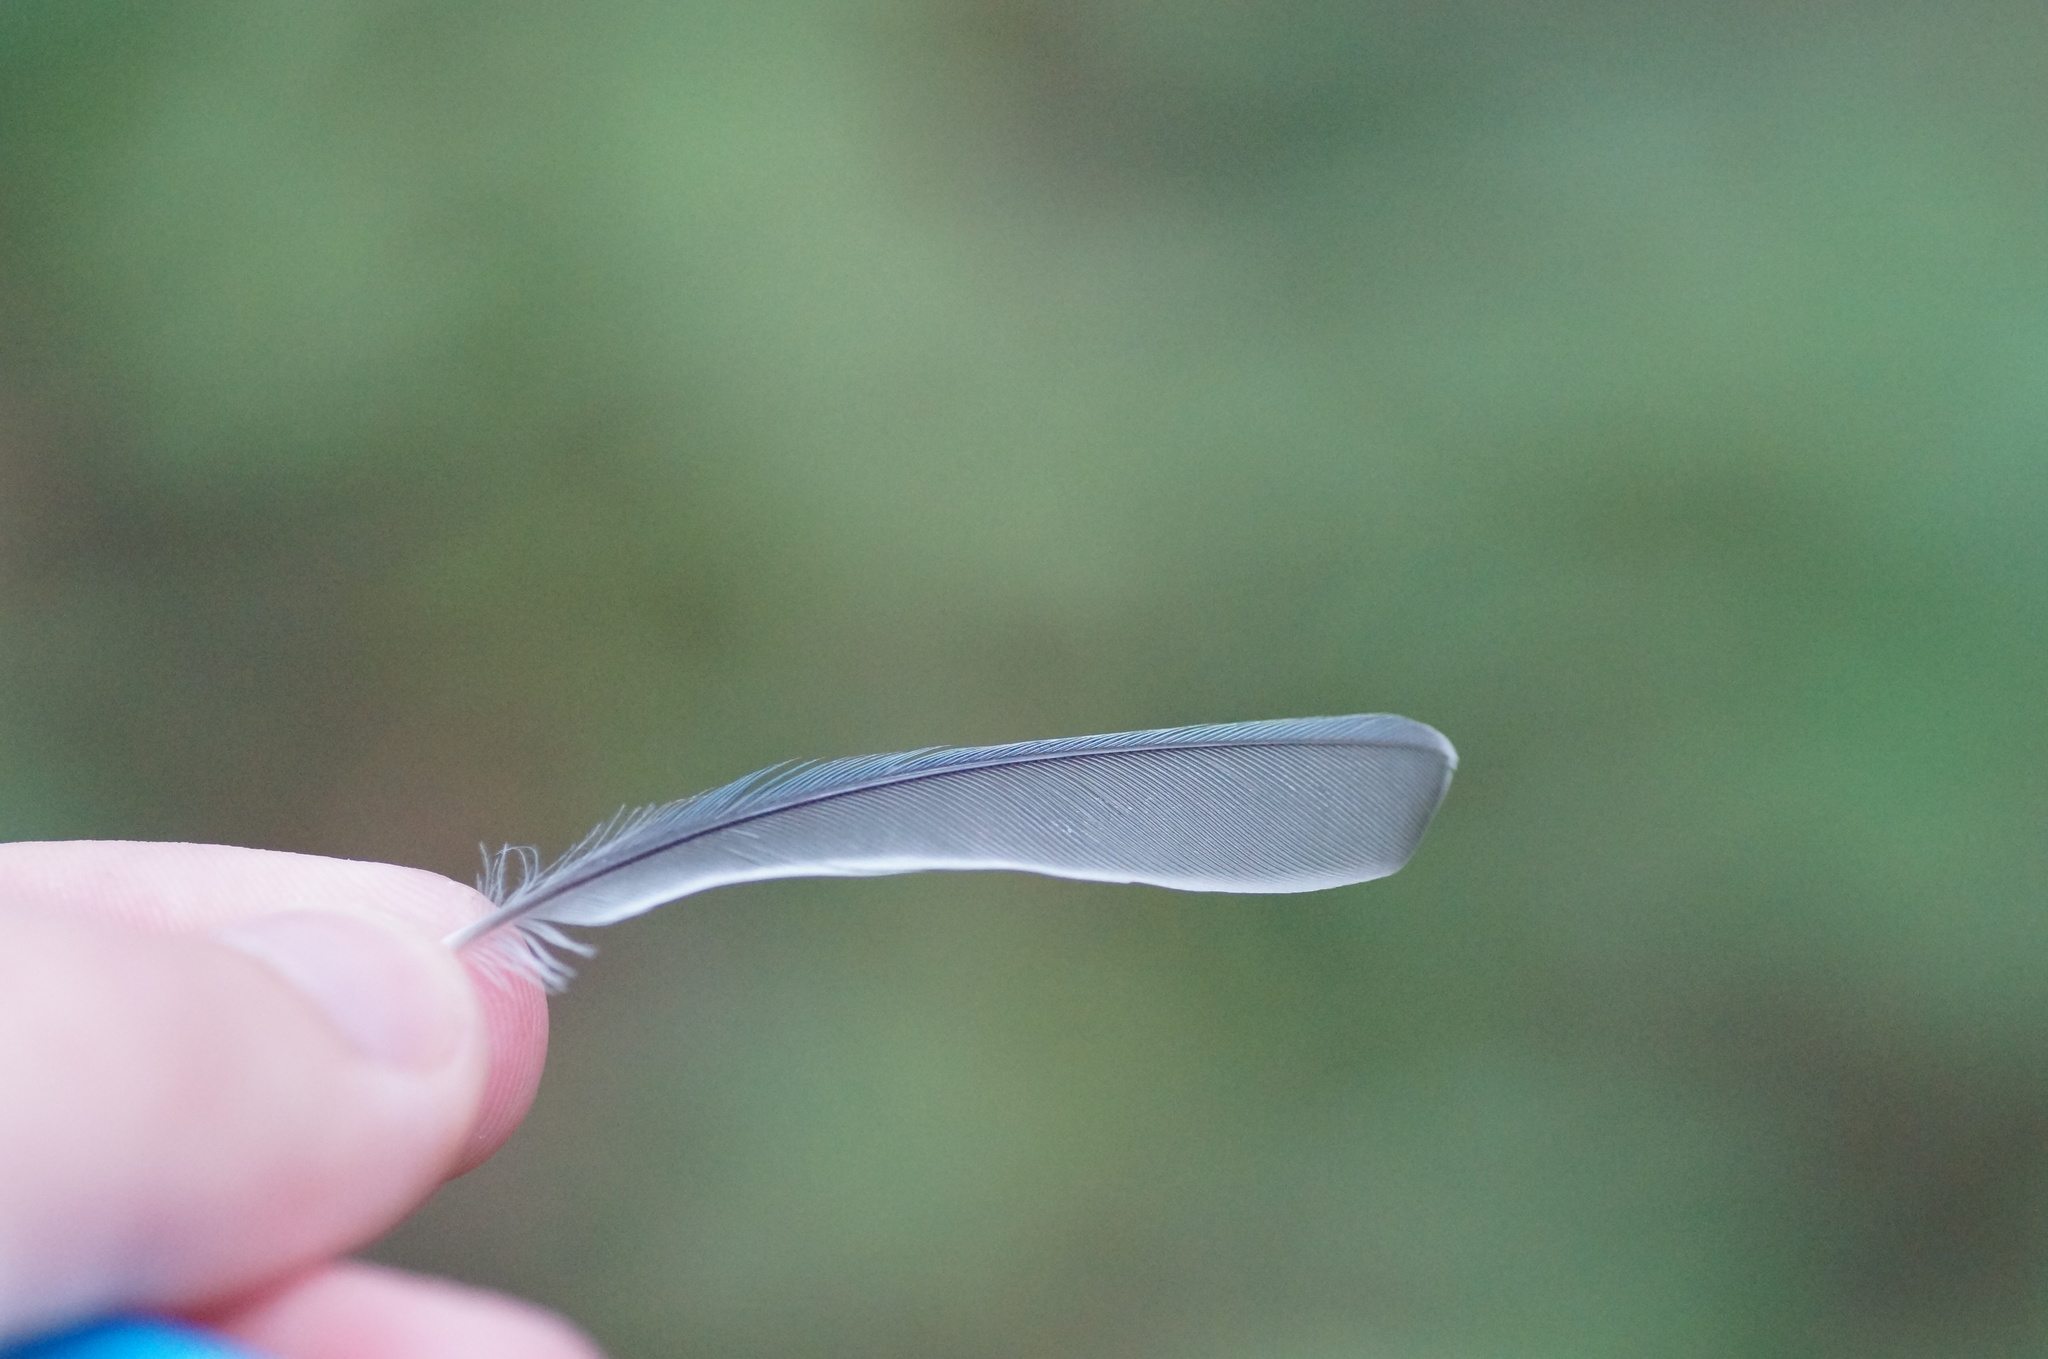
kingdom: Animalia
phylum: Chordata
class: Aves
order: Passeriformes
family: Paridae
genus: Cyanistes
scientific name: Cyanistes caeruleus
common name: Eurasian blue tit
